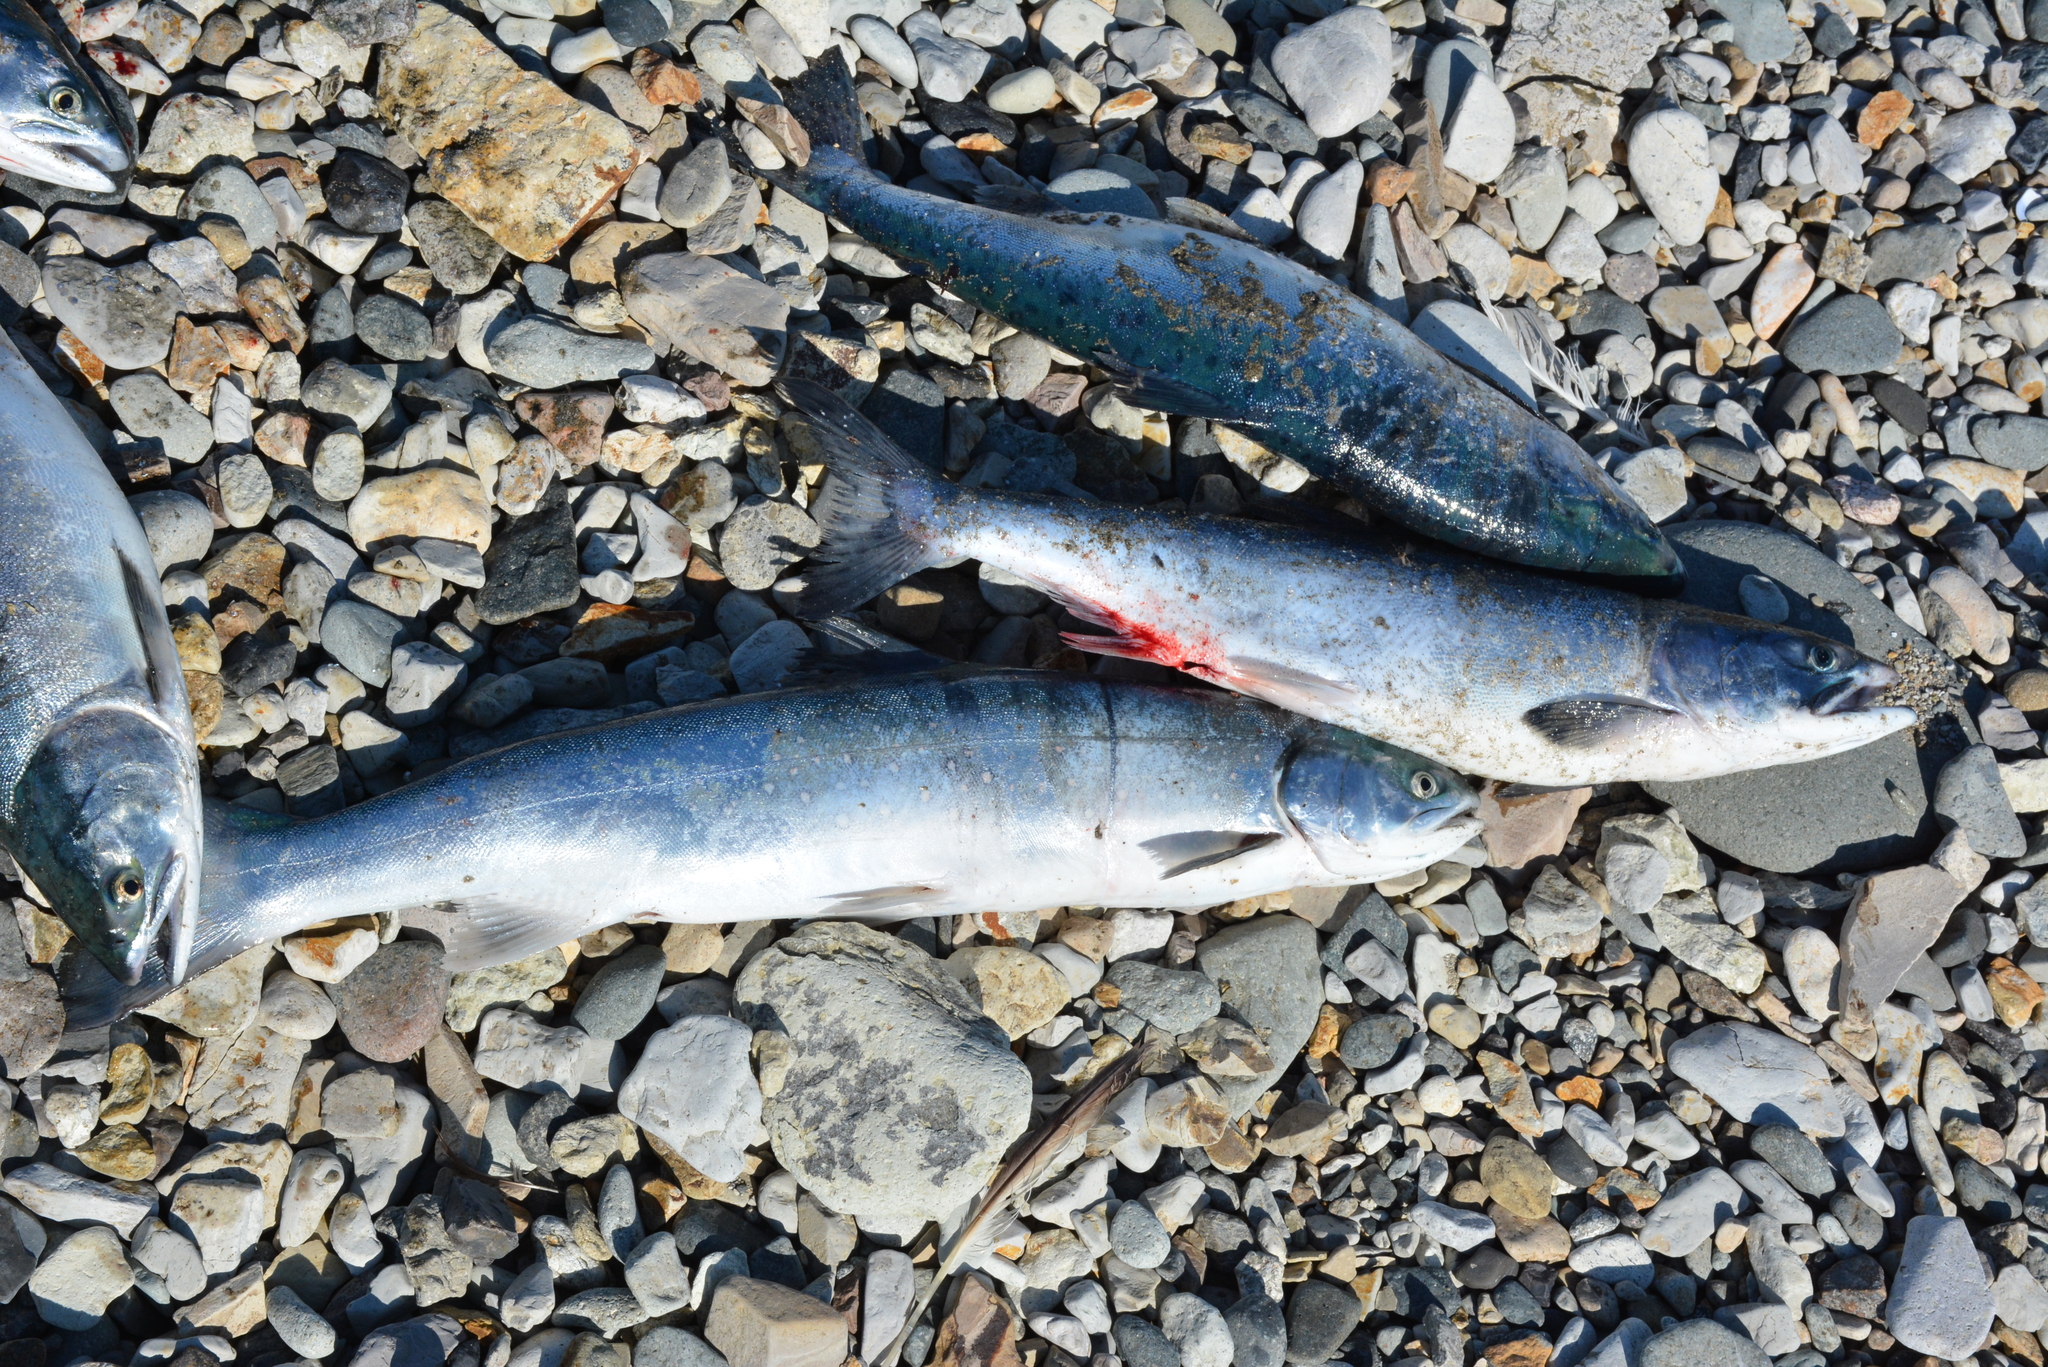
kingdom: Animalia
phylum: Chordata
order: Salmoniformes
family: Salmonidae
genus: Oncorhynchus
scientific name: Oncorhynchus gorbuscha
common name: Humpback salmon
